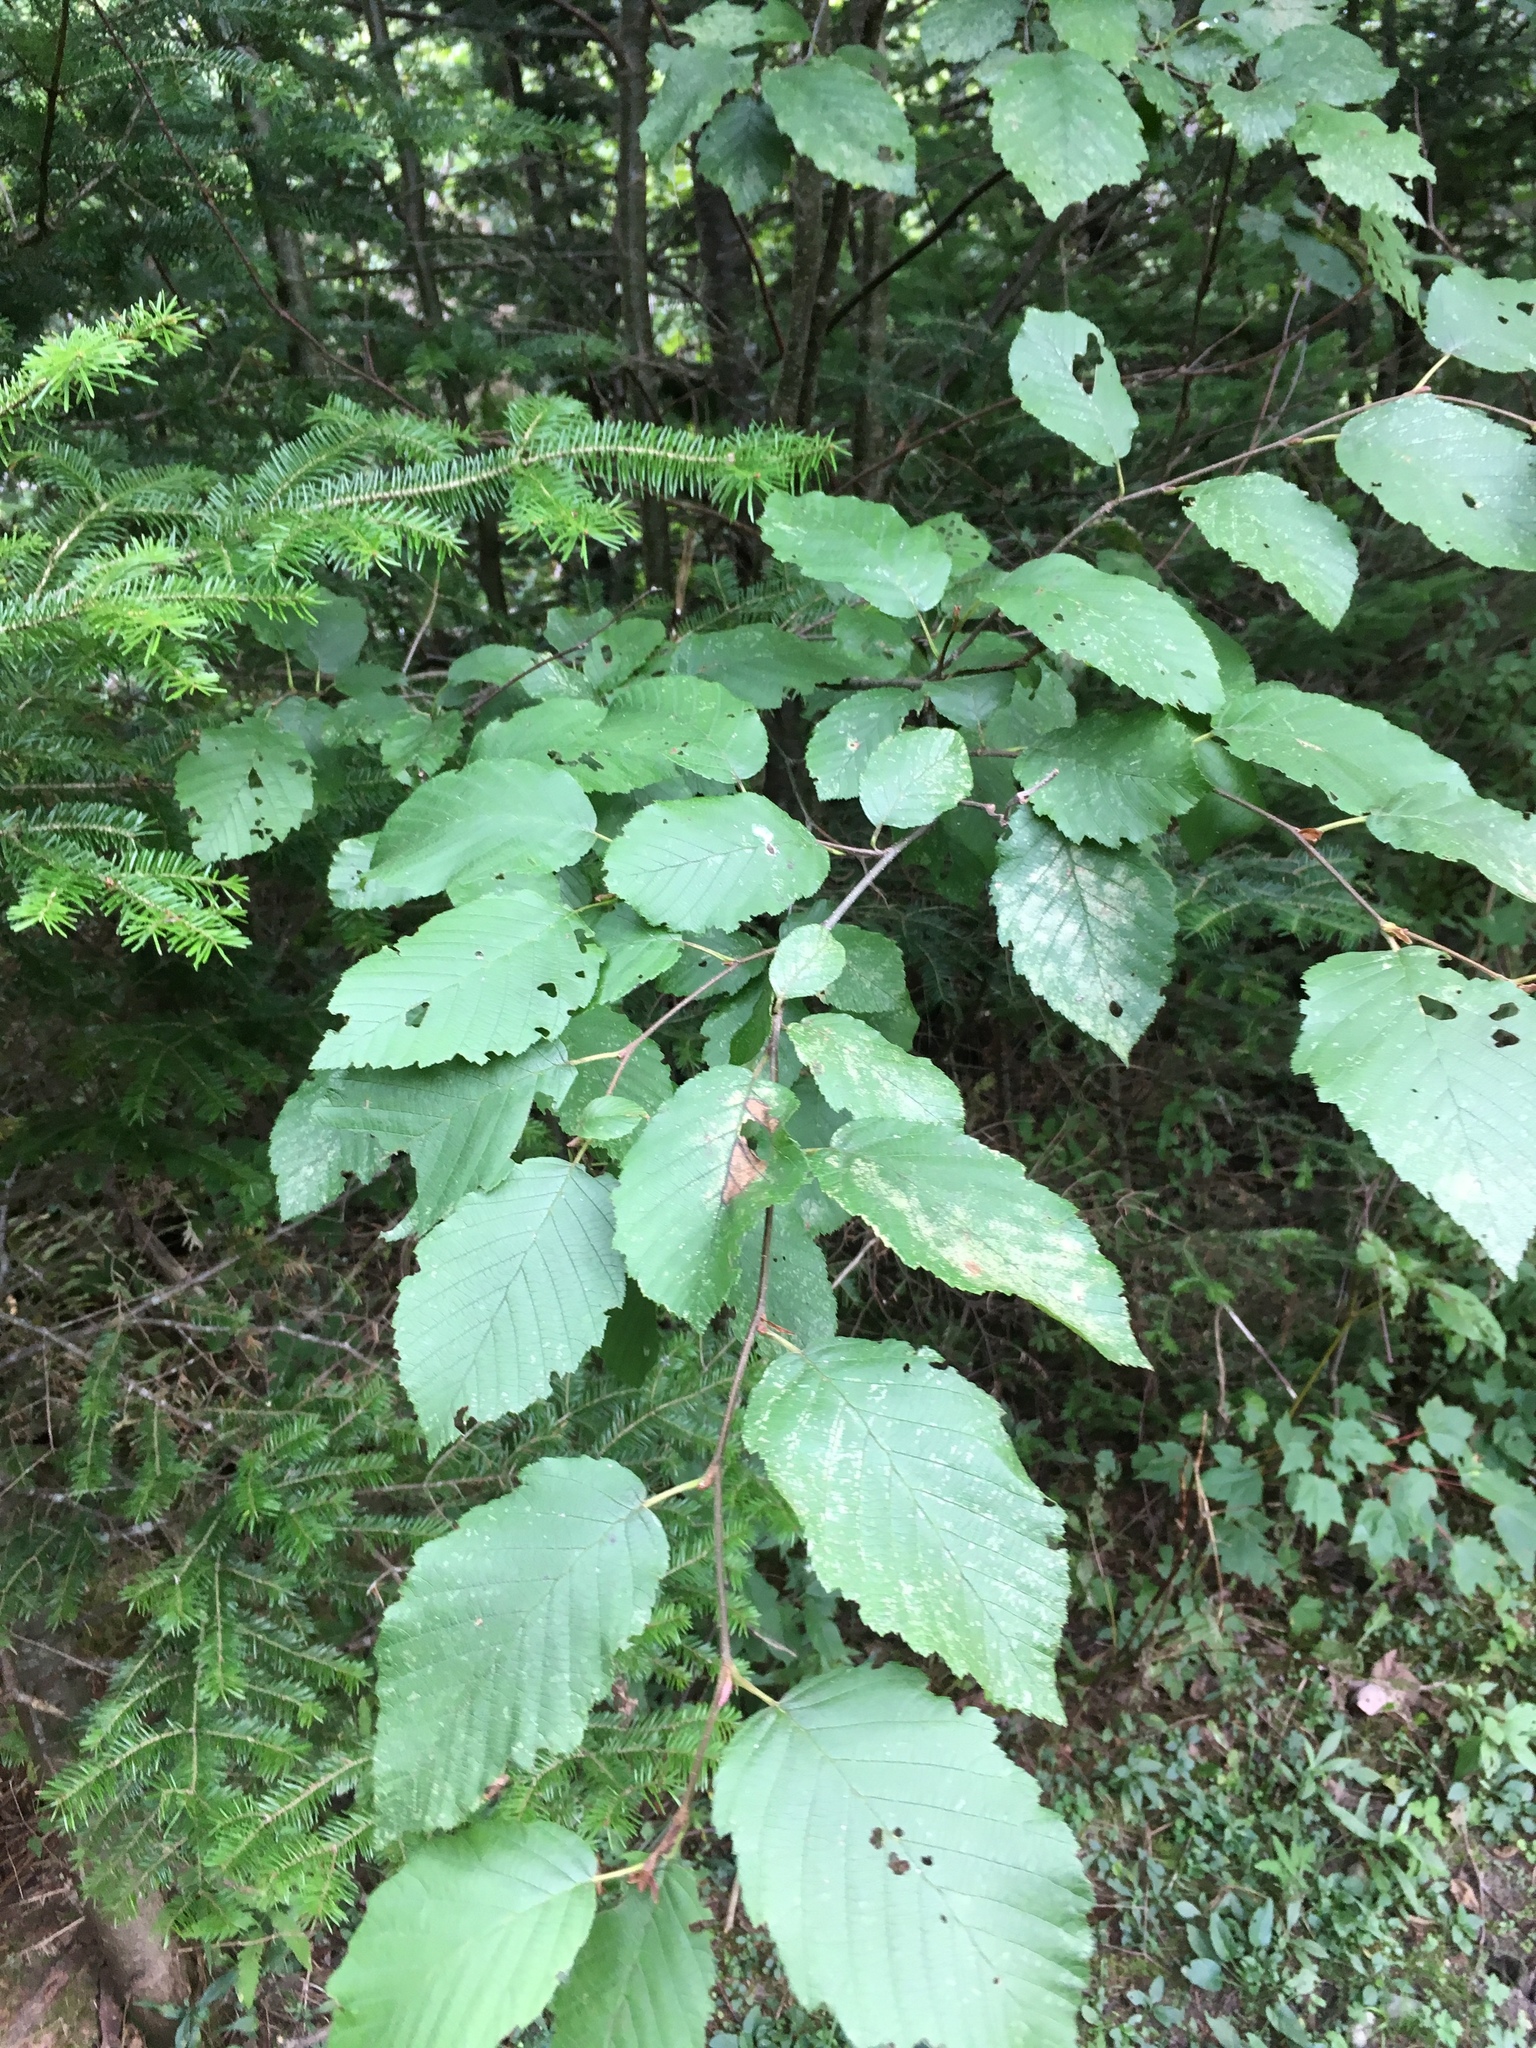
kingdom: Plantae
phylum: Tracheophyta
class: Magnoliopsida
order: Fagales
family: Betulaceae
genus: Alnus
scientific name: Alnus incana
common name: Grey alder
